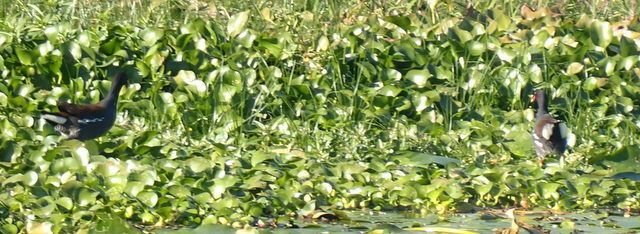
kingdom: Animalia
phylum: Chordata
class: Aves
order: Gruiformes
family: Rallidae
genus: Gallinula
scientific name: Gallinula chloropus
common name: Common moorhen
